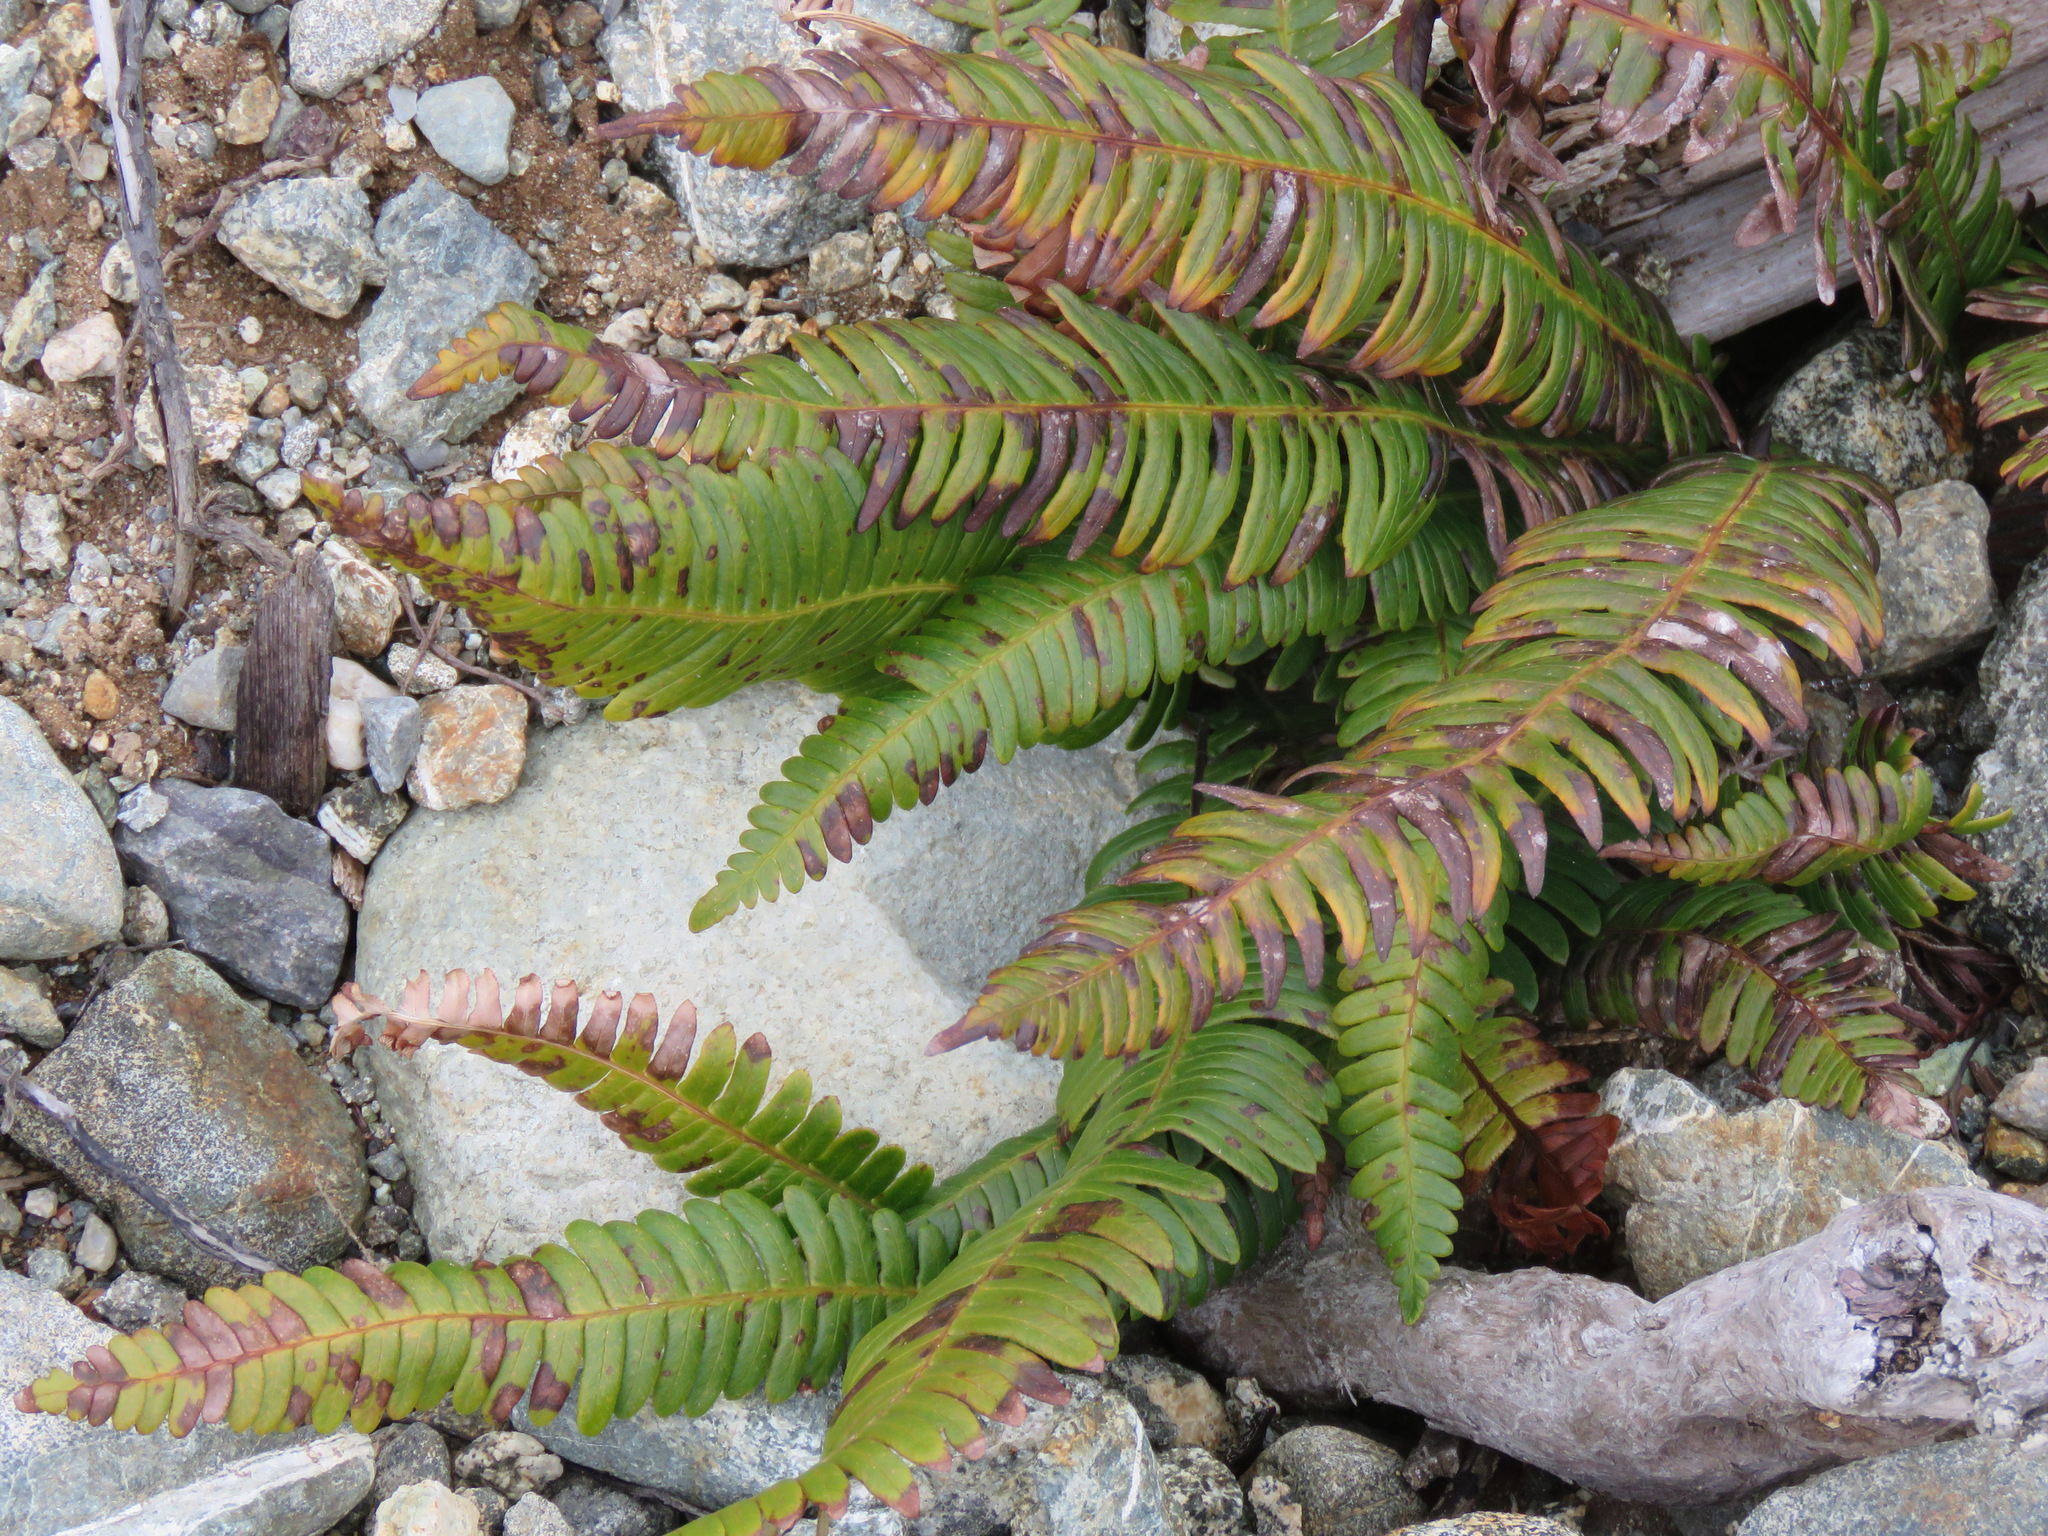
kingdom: Plantae
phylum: Tracheophyta
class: Polypodiopsida
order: Polypodiales
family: Blechnaceae
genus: Struthiopteris
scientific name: Struthiopteris spicant
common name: Deer fern
